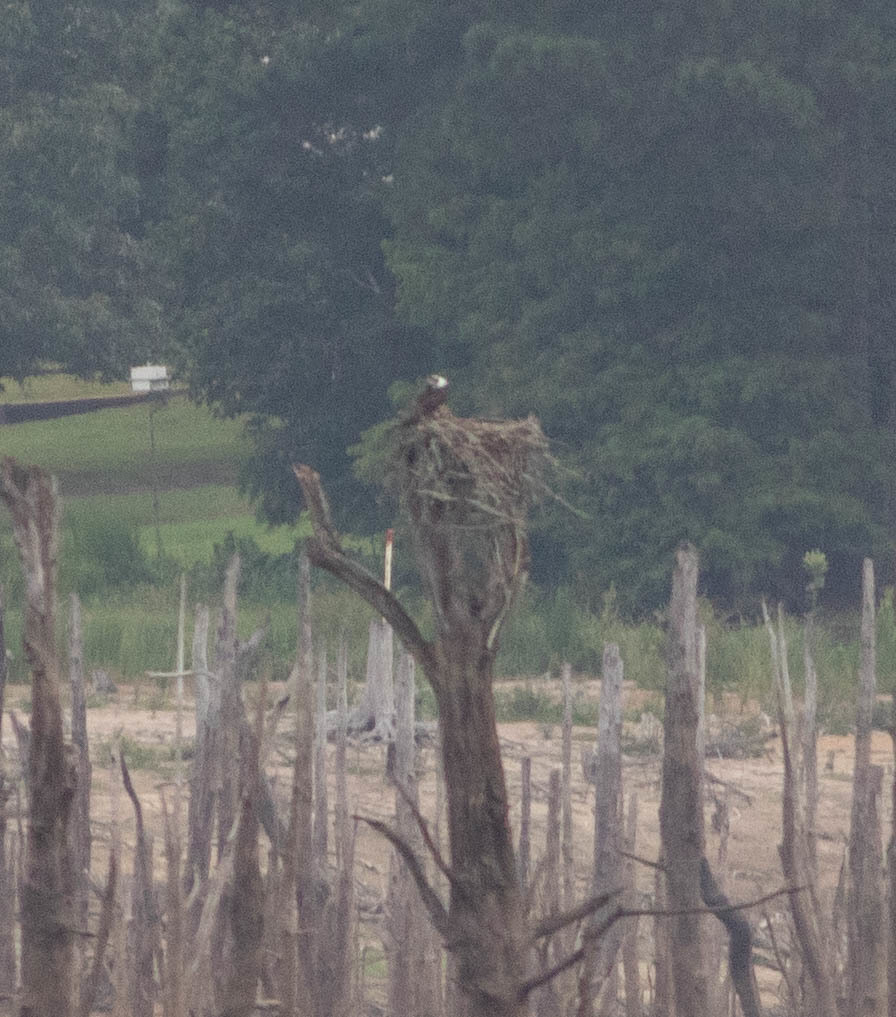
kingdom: Animalia
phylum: Chordata
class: Aves
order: Accipitriformes
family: Pandionidae
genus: Pandion
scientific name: Pandion haliaetus
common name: Osprey
